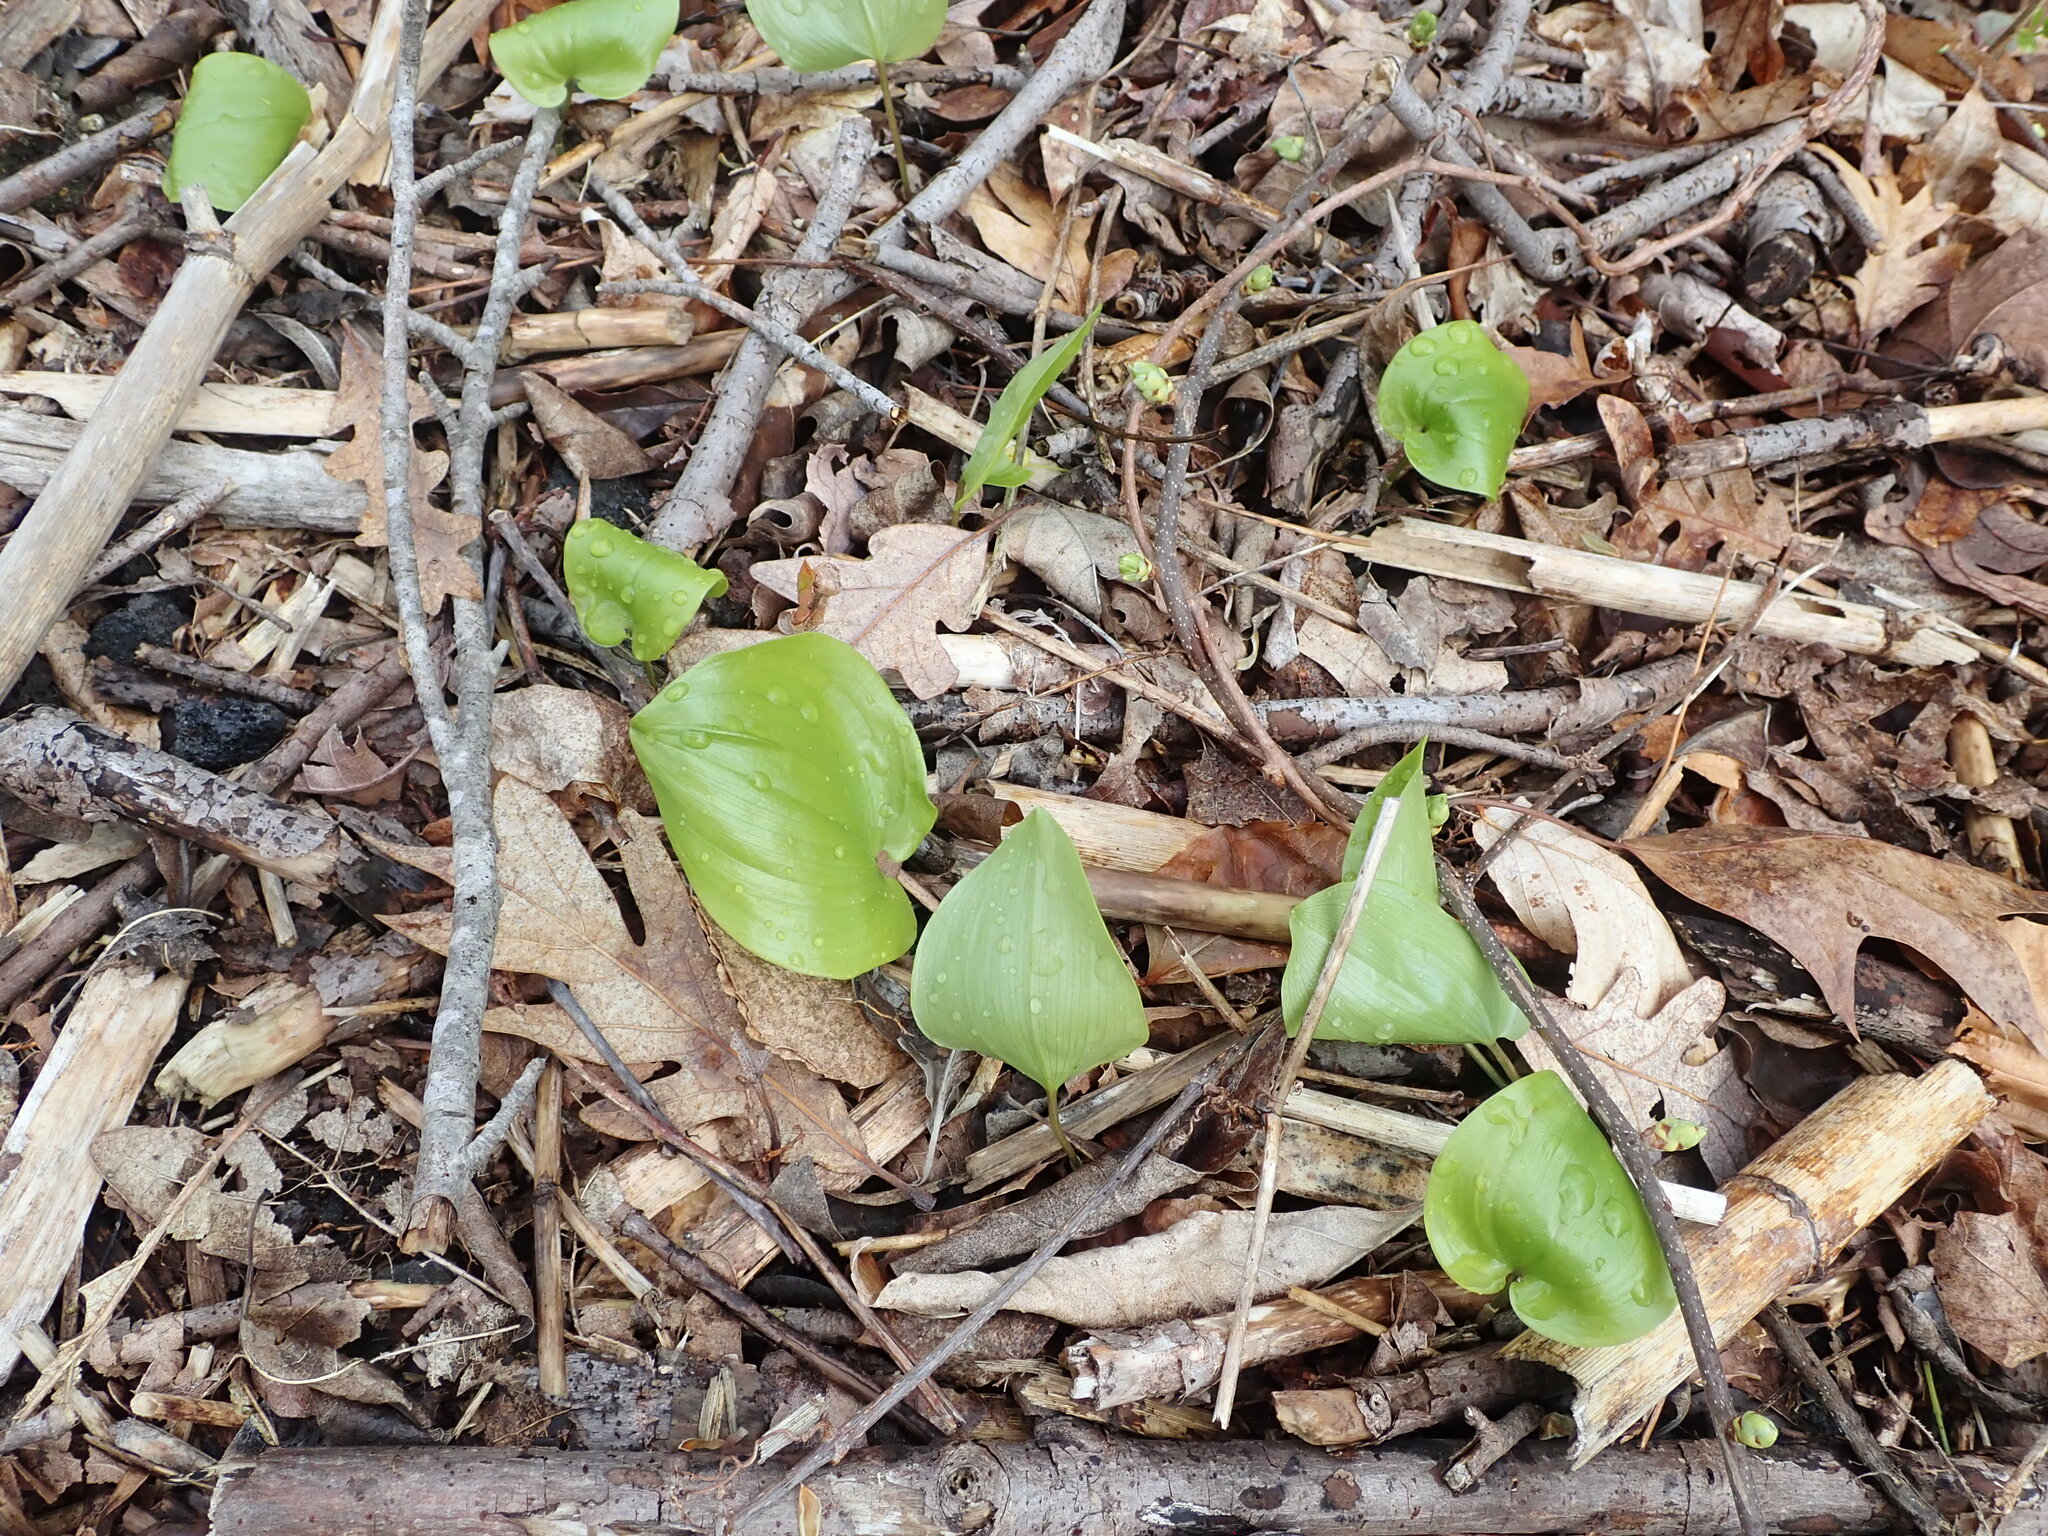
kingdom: Plantae
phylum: Tracheophyta
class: Liliopsida
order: Asparagales
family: Asparagaceae
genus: Maianthemum
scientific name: Maianthemum canadense
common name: False lily-of-the-valley
